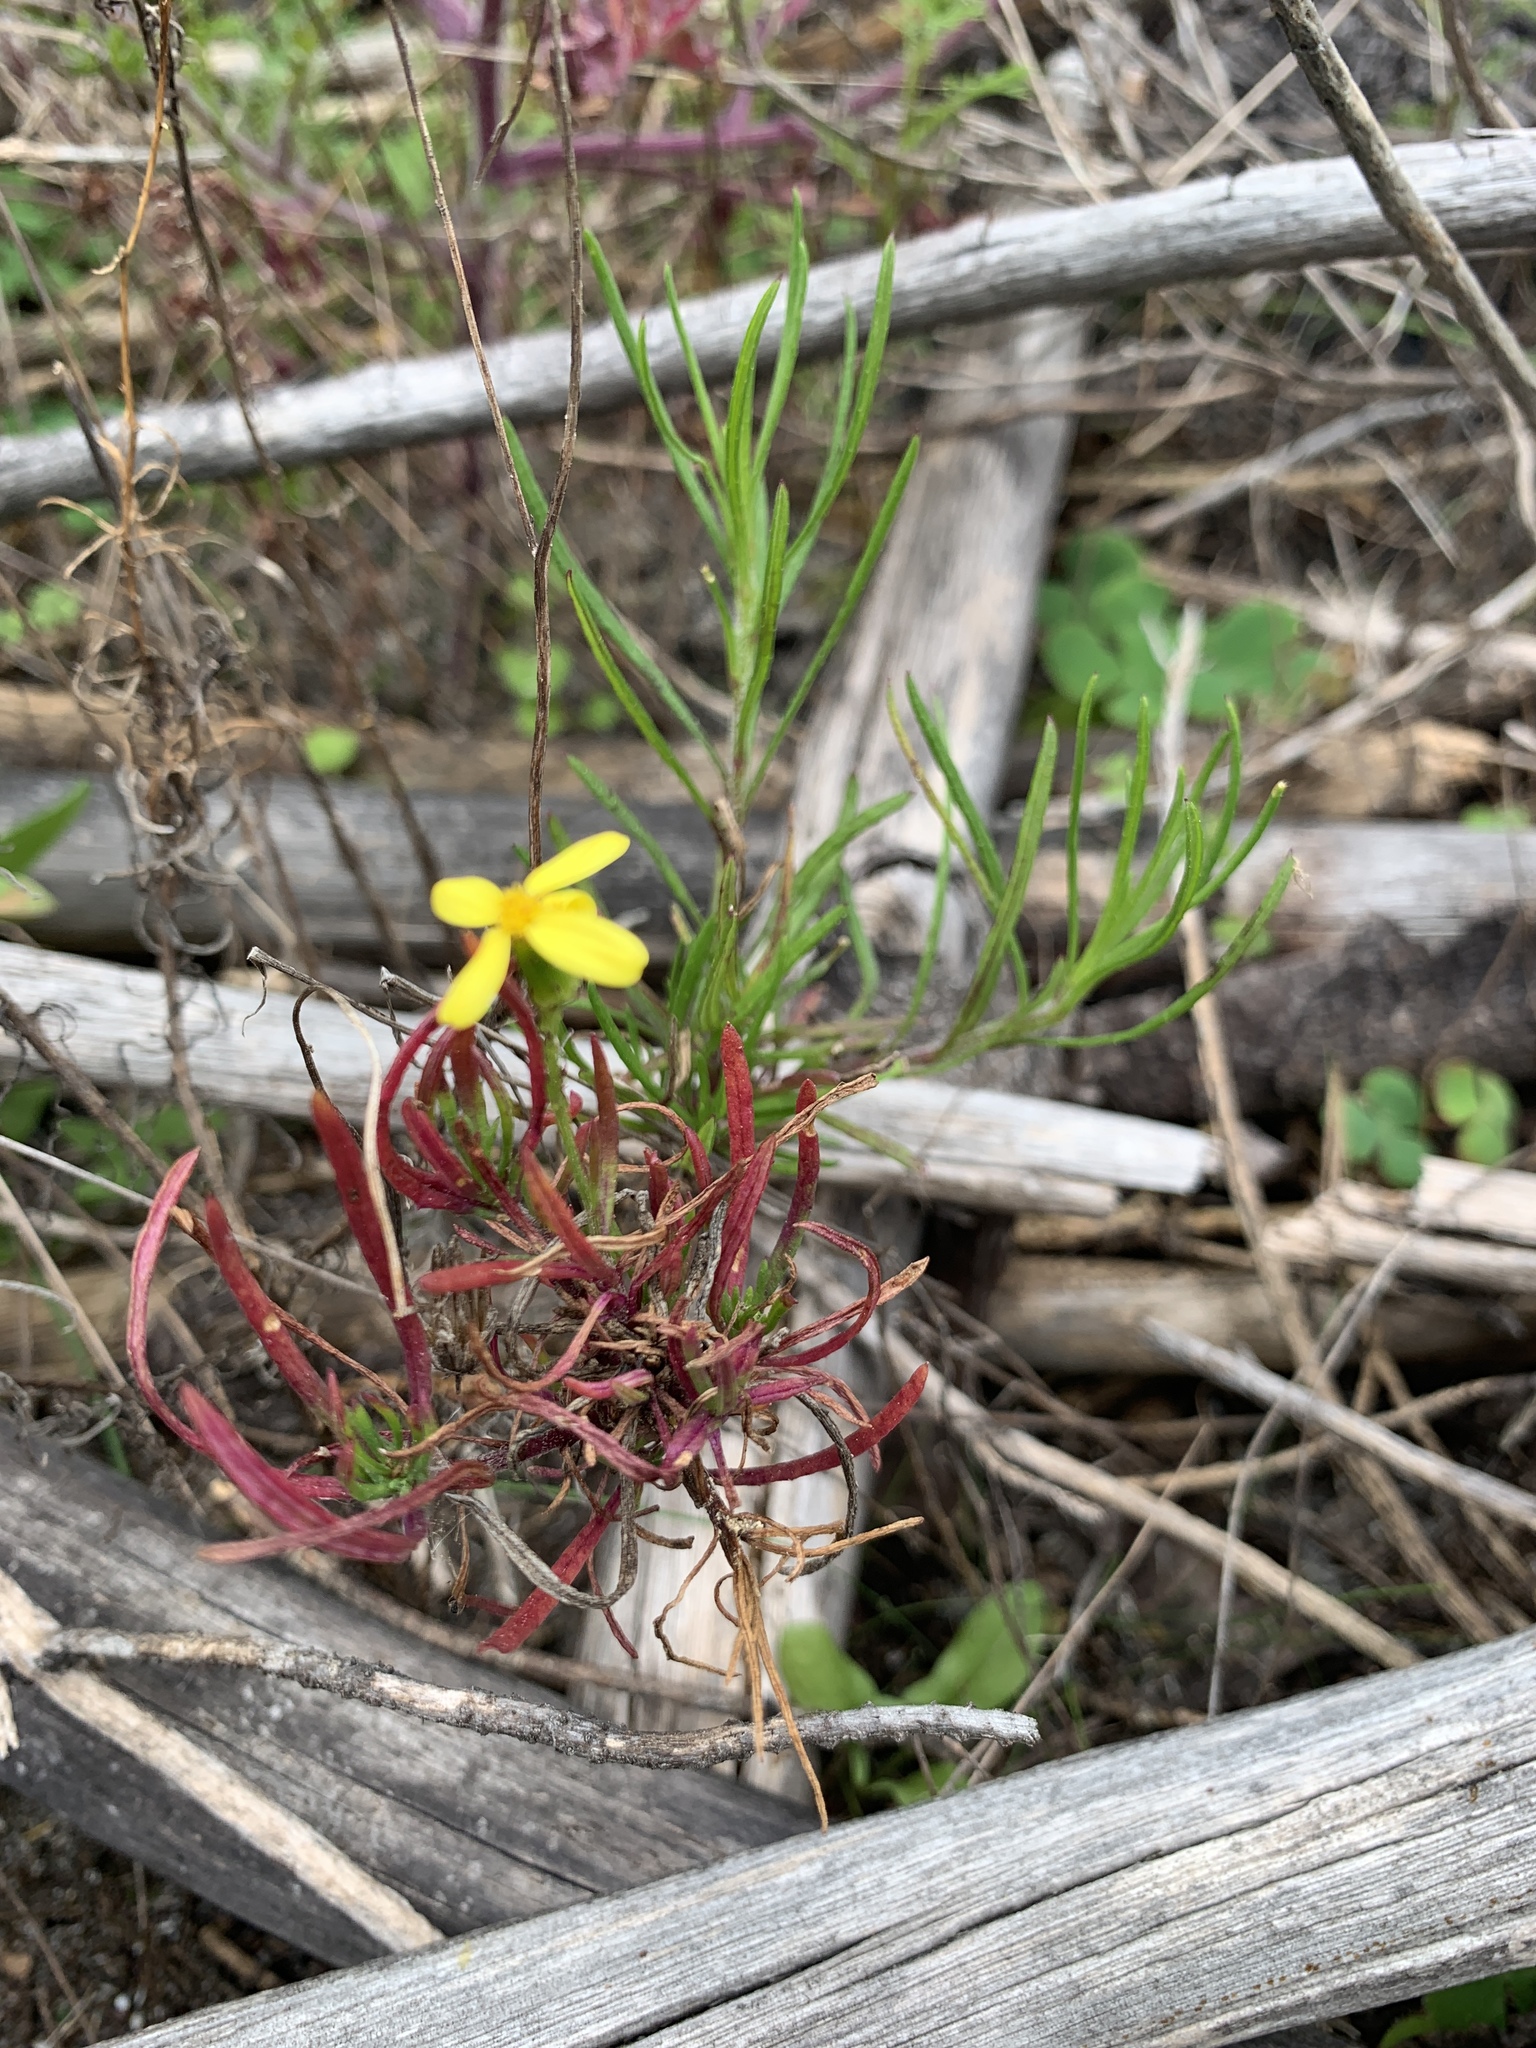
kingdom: Plantae
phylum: Tracheophyta
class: Magnoliopsida
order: Asterales
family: Asteraceae
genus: Senecio
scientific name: Senecio burchellii
